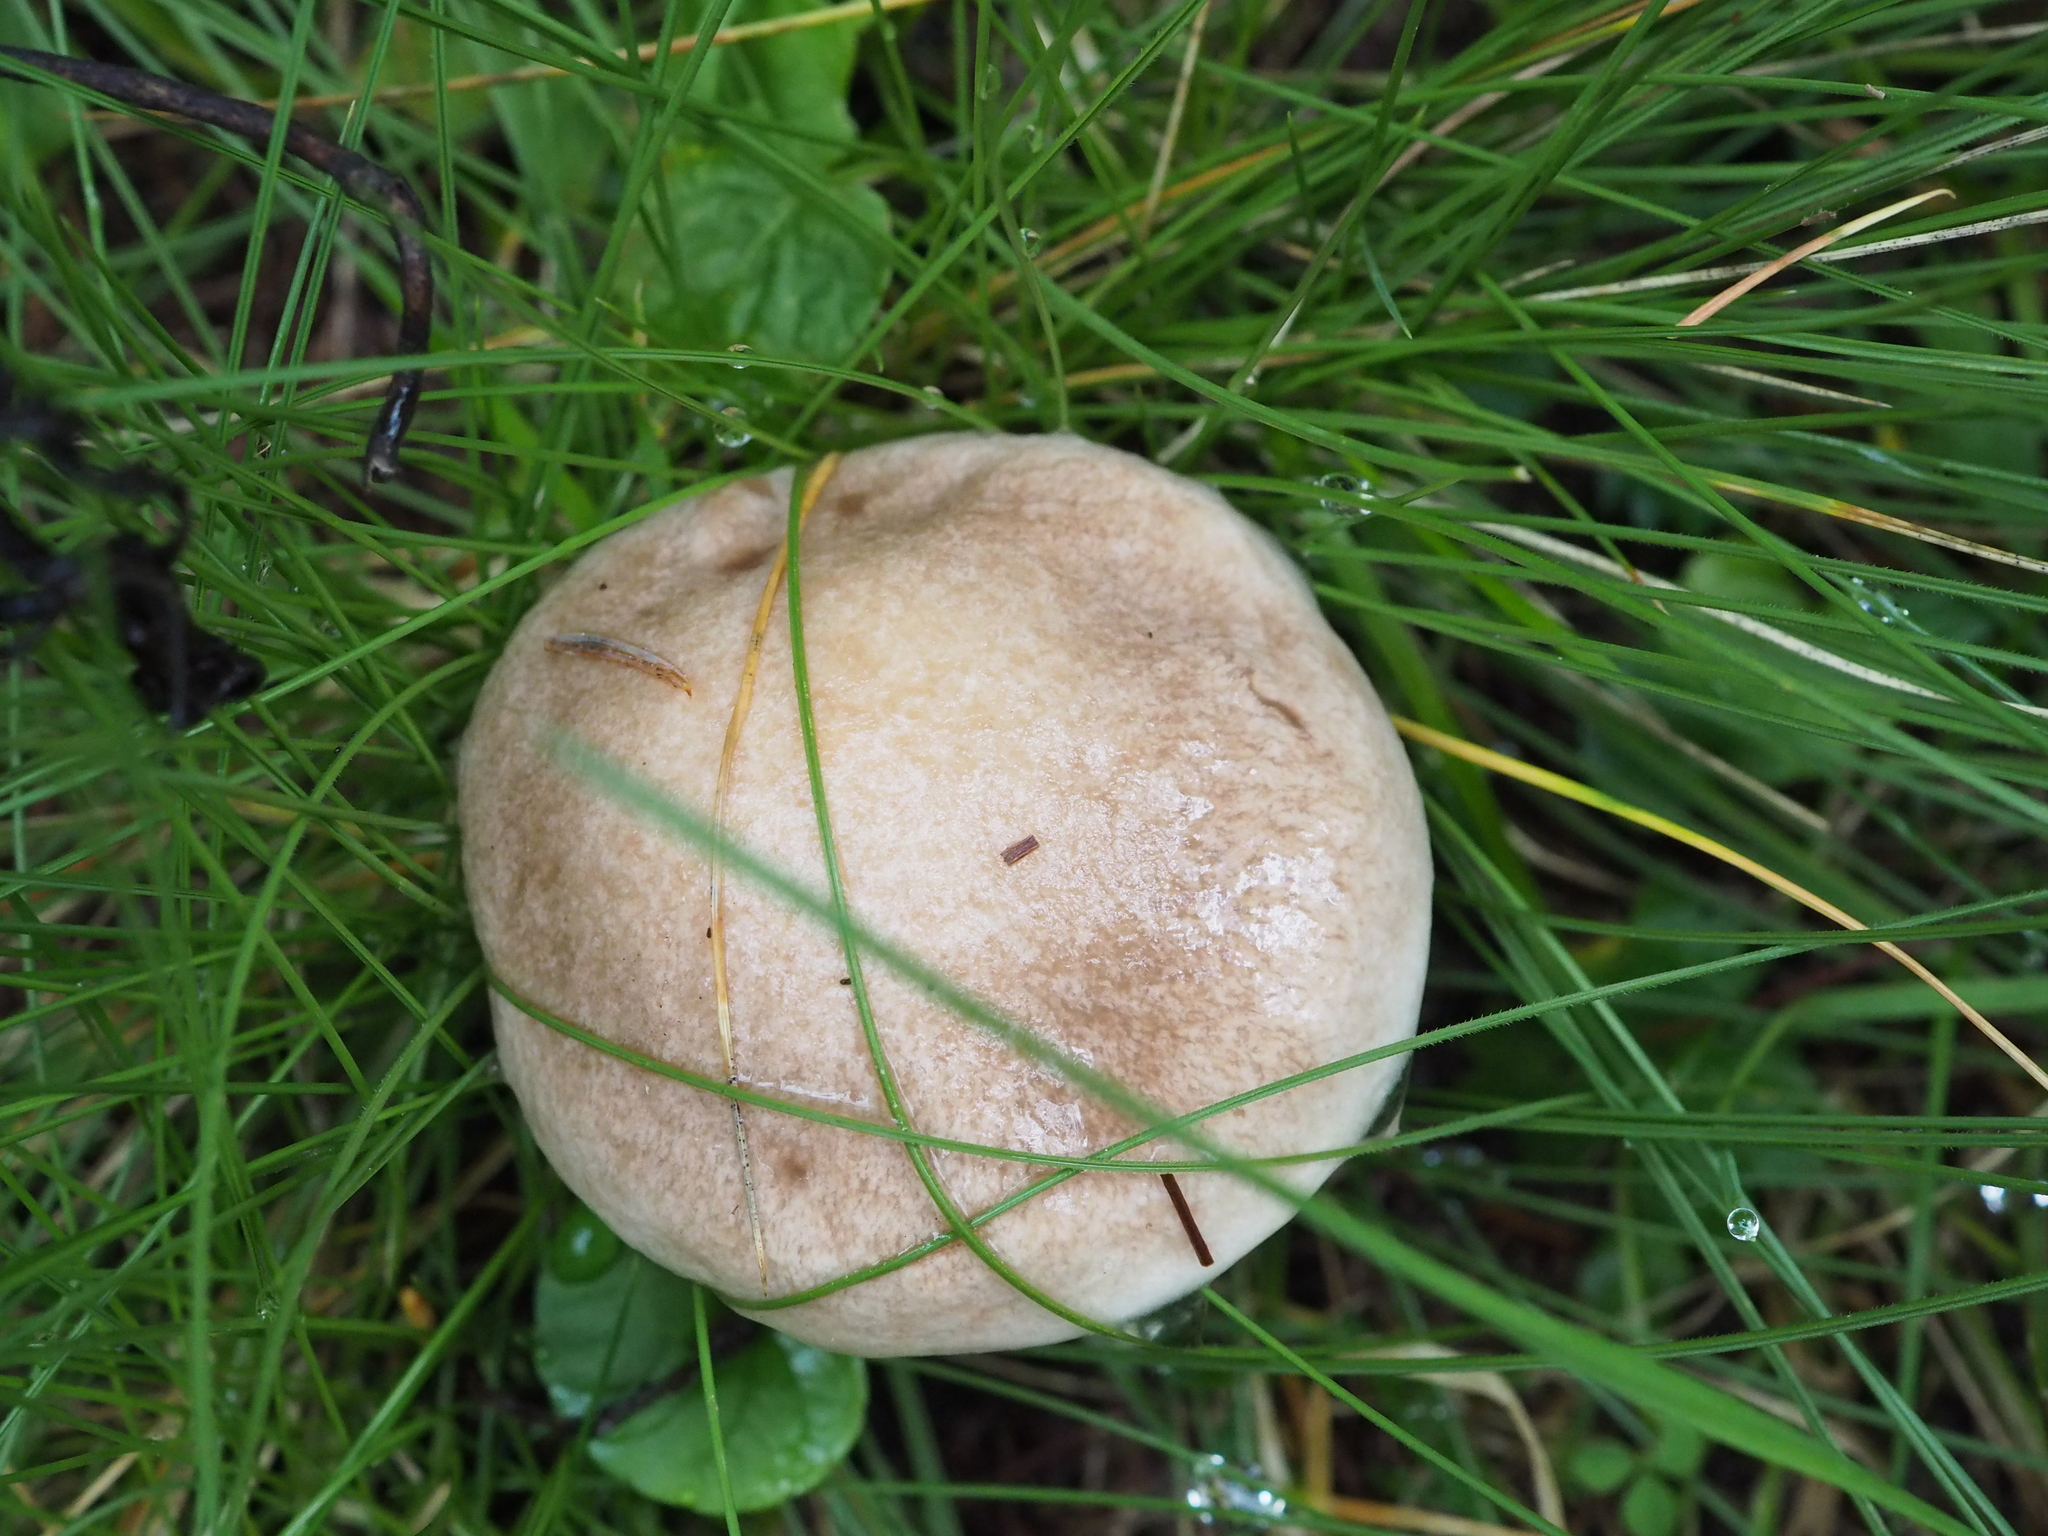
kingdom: Fungi
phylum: Basidiomycota
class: Agaricomycetes
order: Boletales
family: Suillaceae
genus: Suillus
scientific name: Suillus viscidus
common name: Sticky bolete
